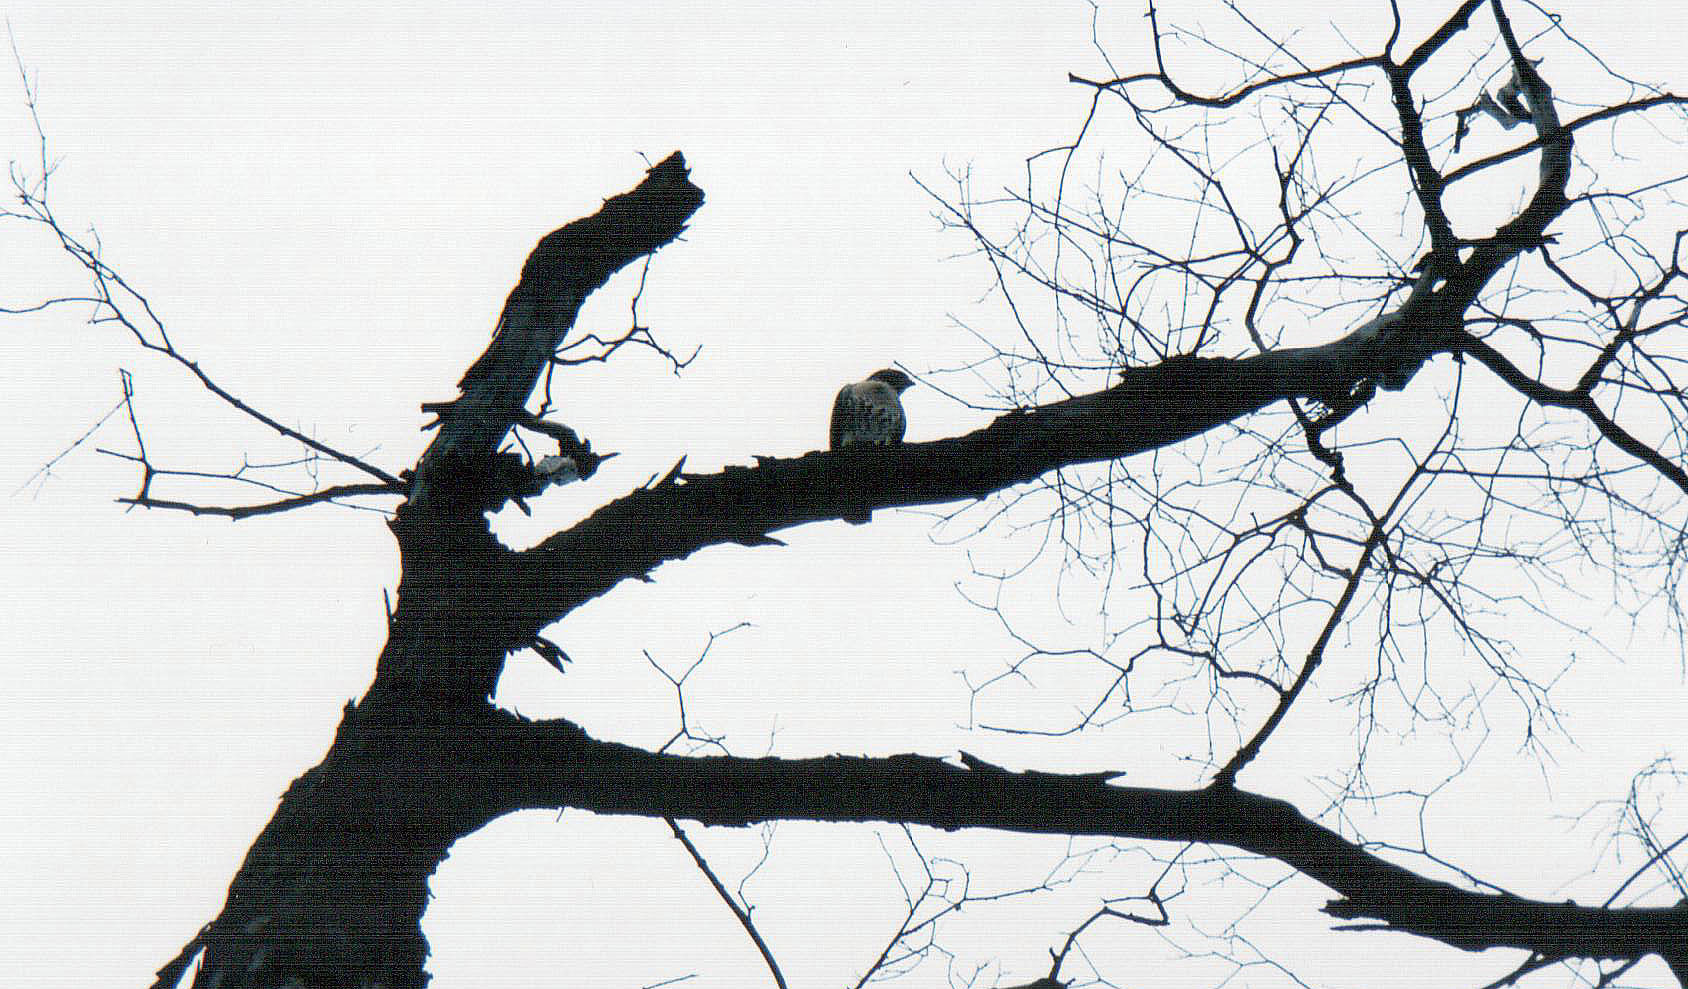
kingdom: Animalia
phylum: Chordata
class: Aves
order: Accipitriformes
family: Accipitridae
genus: Buteo
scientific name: Buteo jamaicensis
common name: Red-tailed hawk
